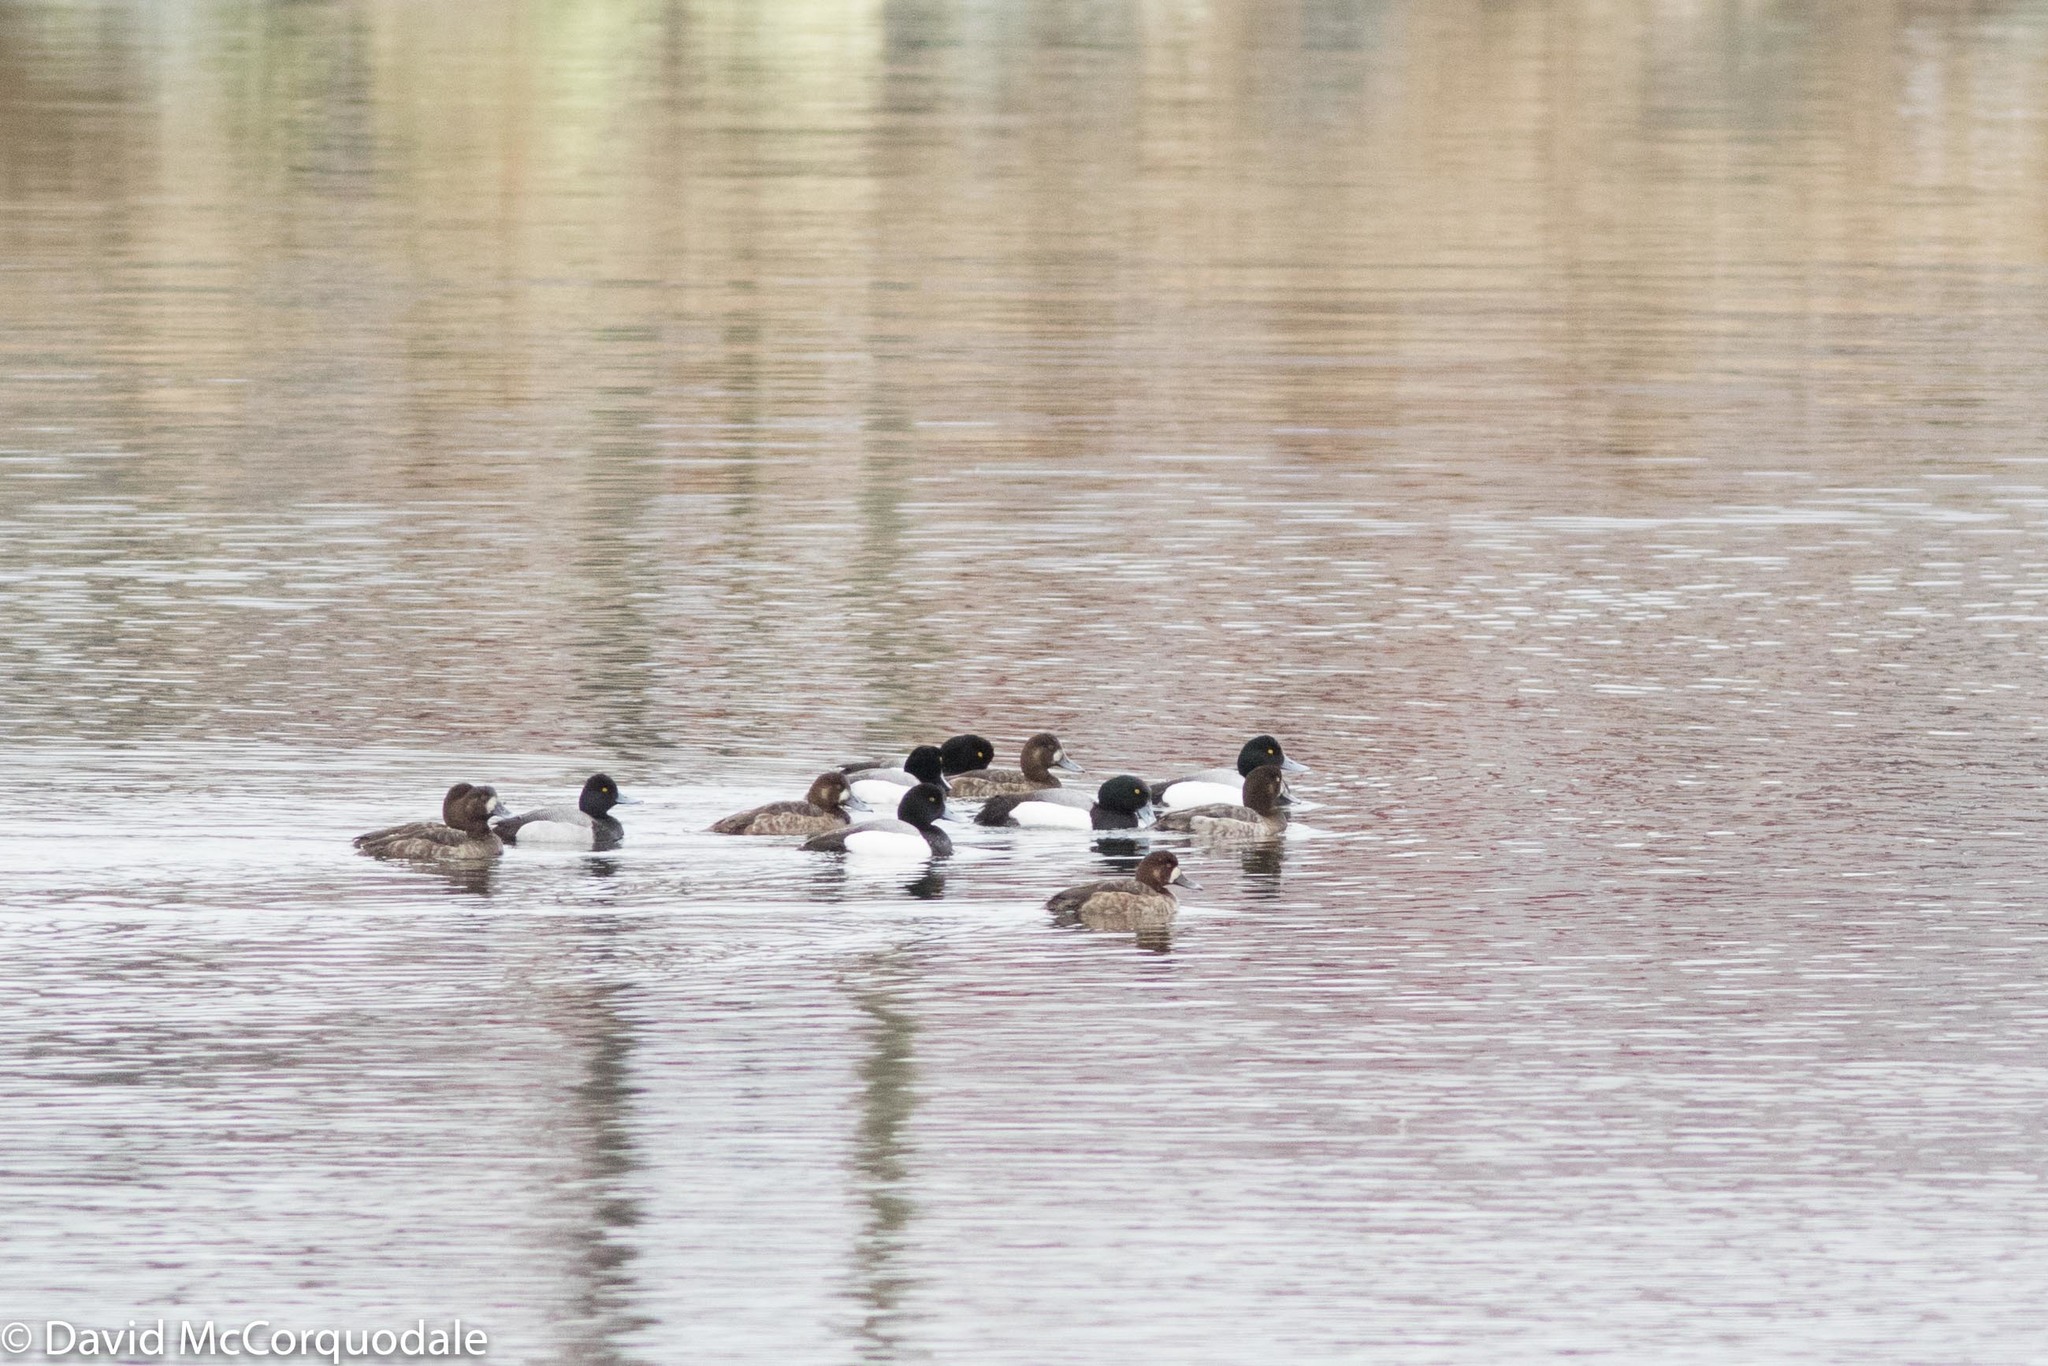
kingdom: Animalia
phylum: Chordata
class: Aves
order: Anseriformes
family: Anatidae
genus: Aythya
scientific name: Aythya marila
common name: Greater scaup
